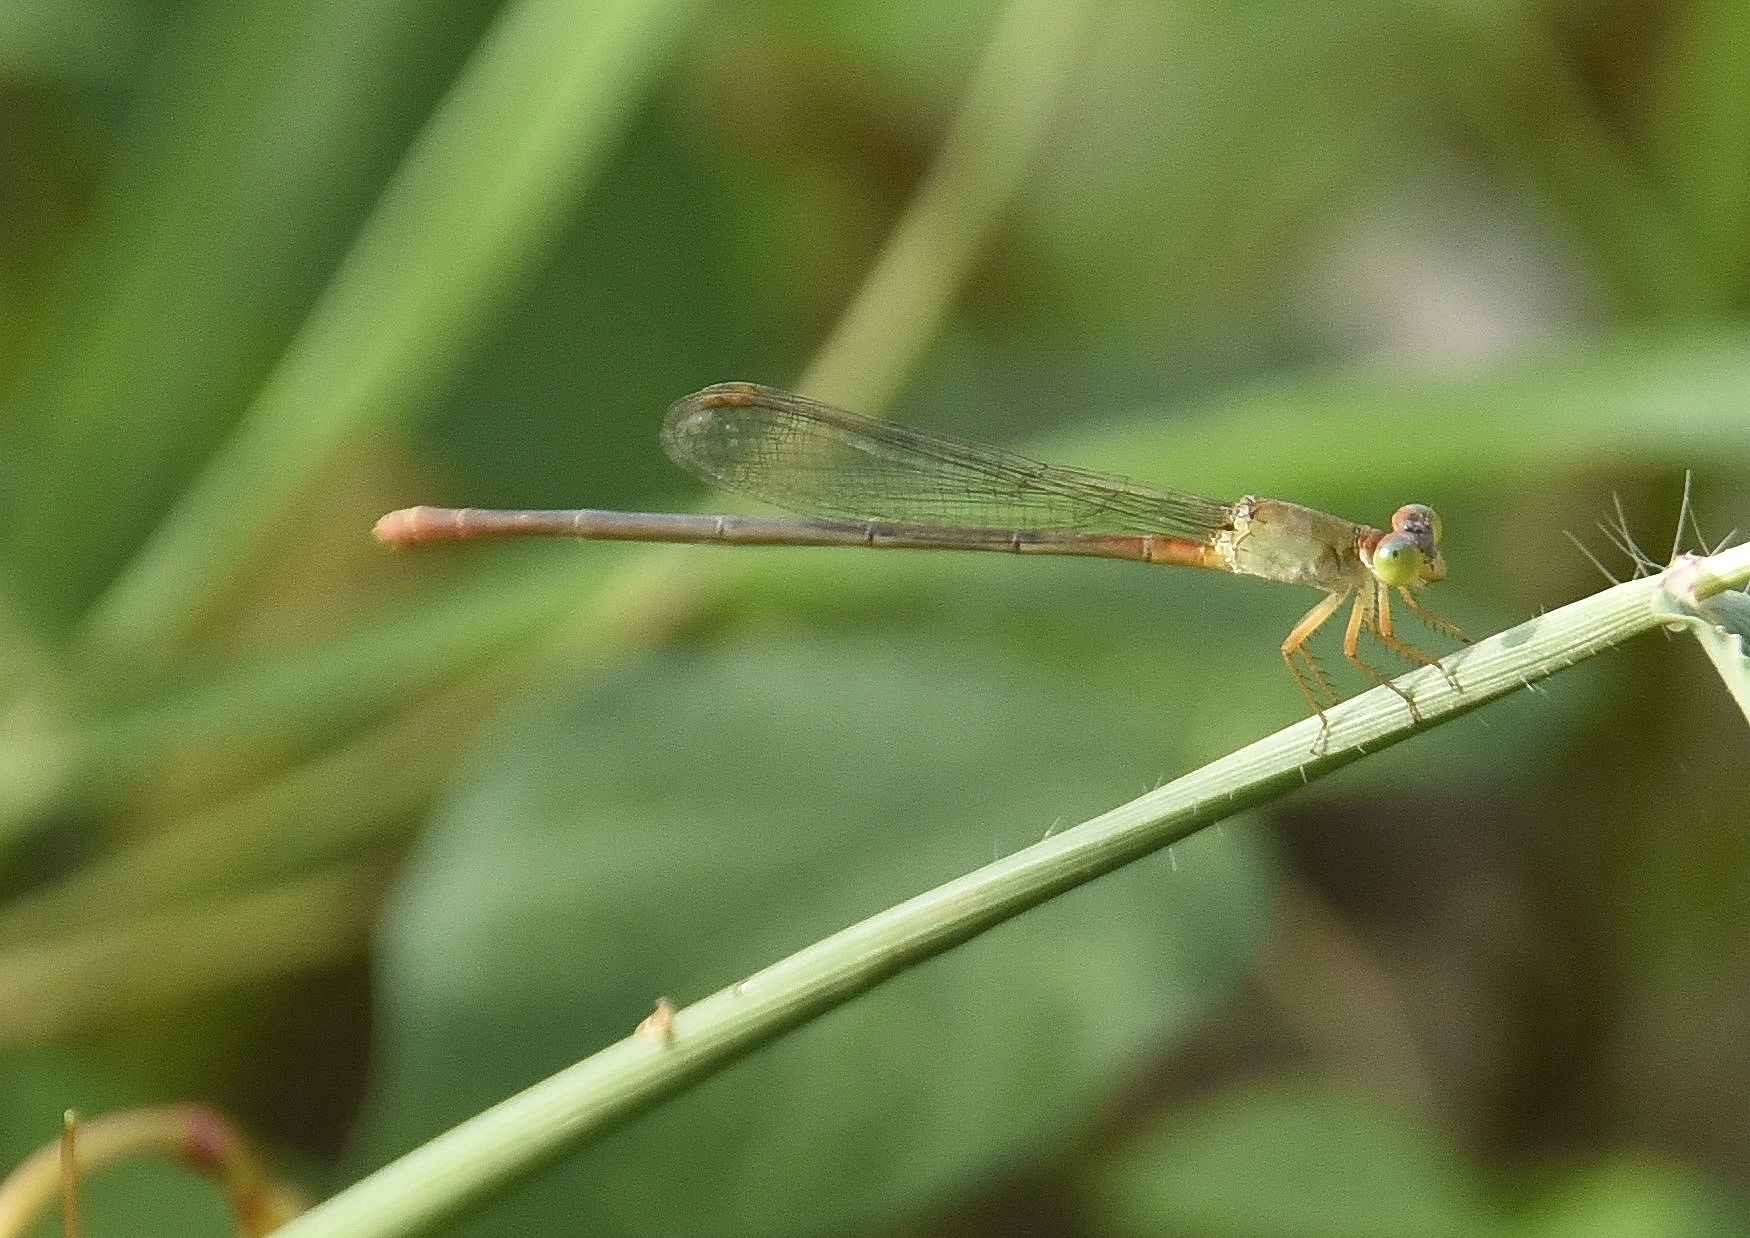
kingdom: Animalia
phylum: Arthropoda
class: Insecta
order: Odonata
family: Coenagrionidae
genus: Ceriagrion
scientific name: Ceriagrion cerinorubellum
